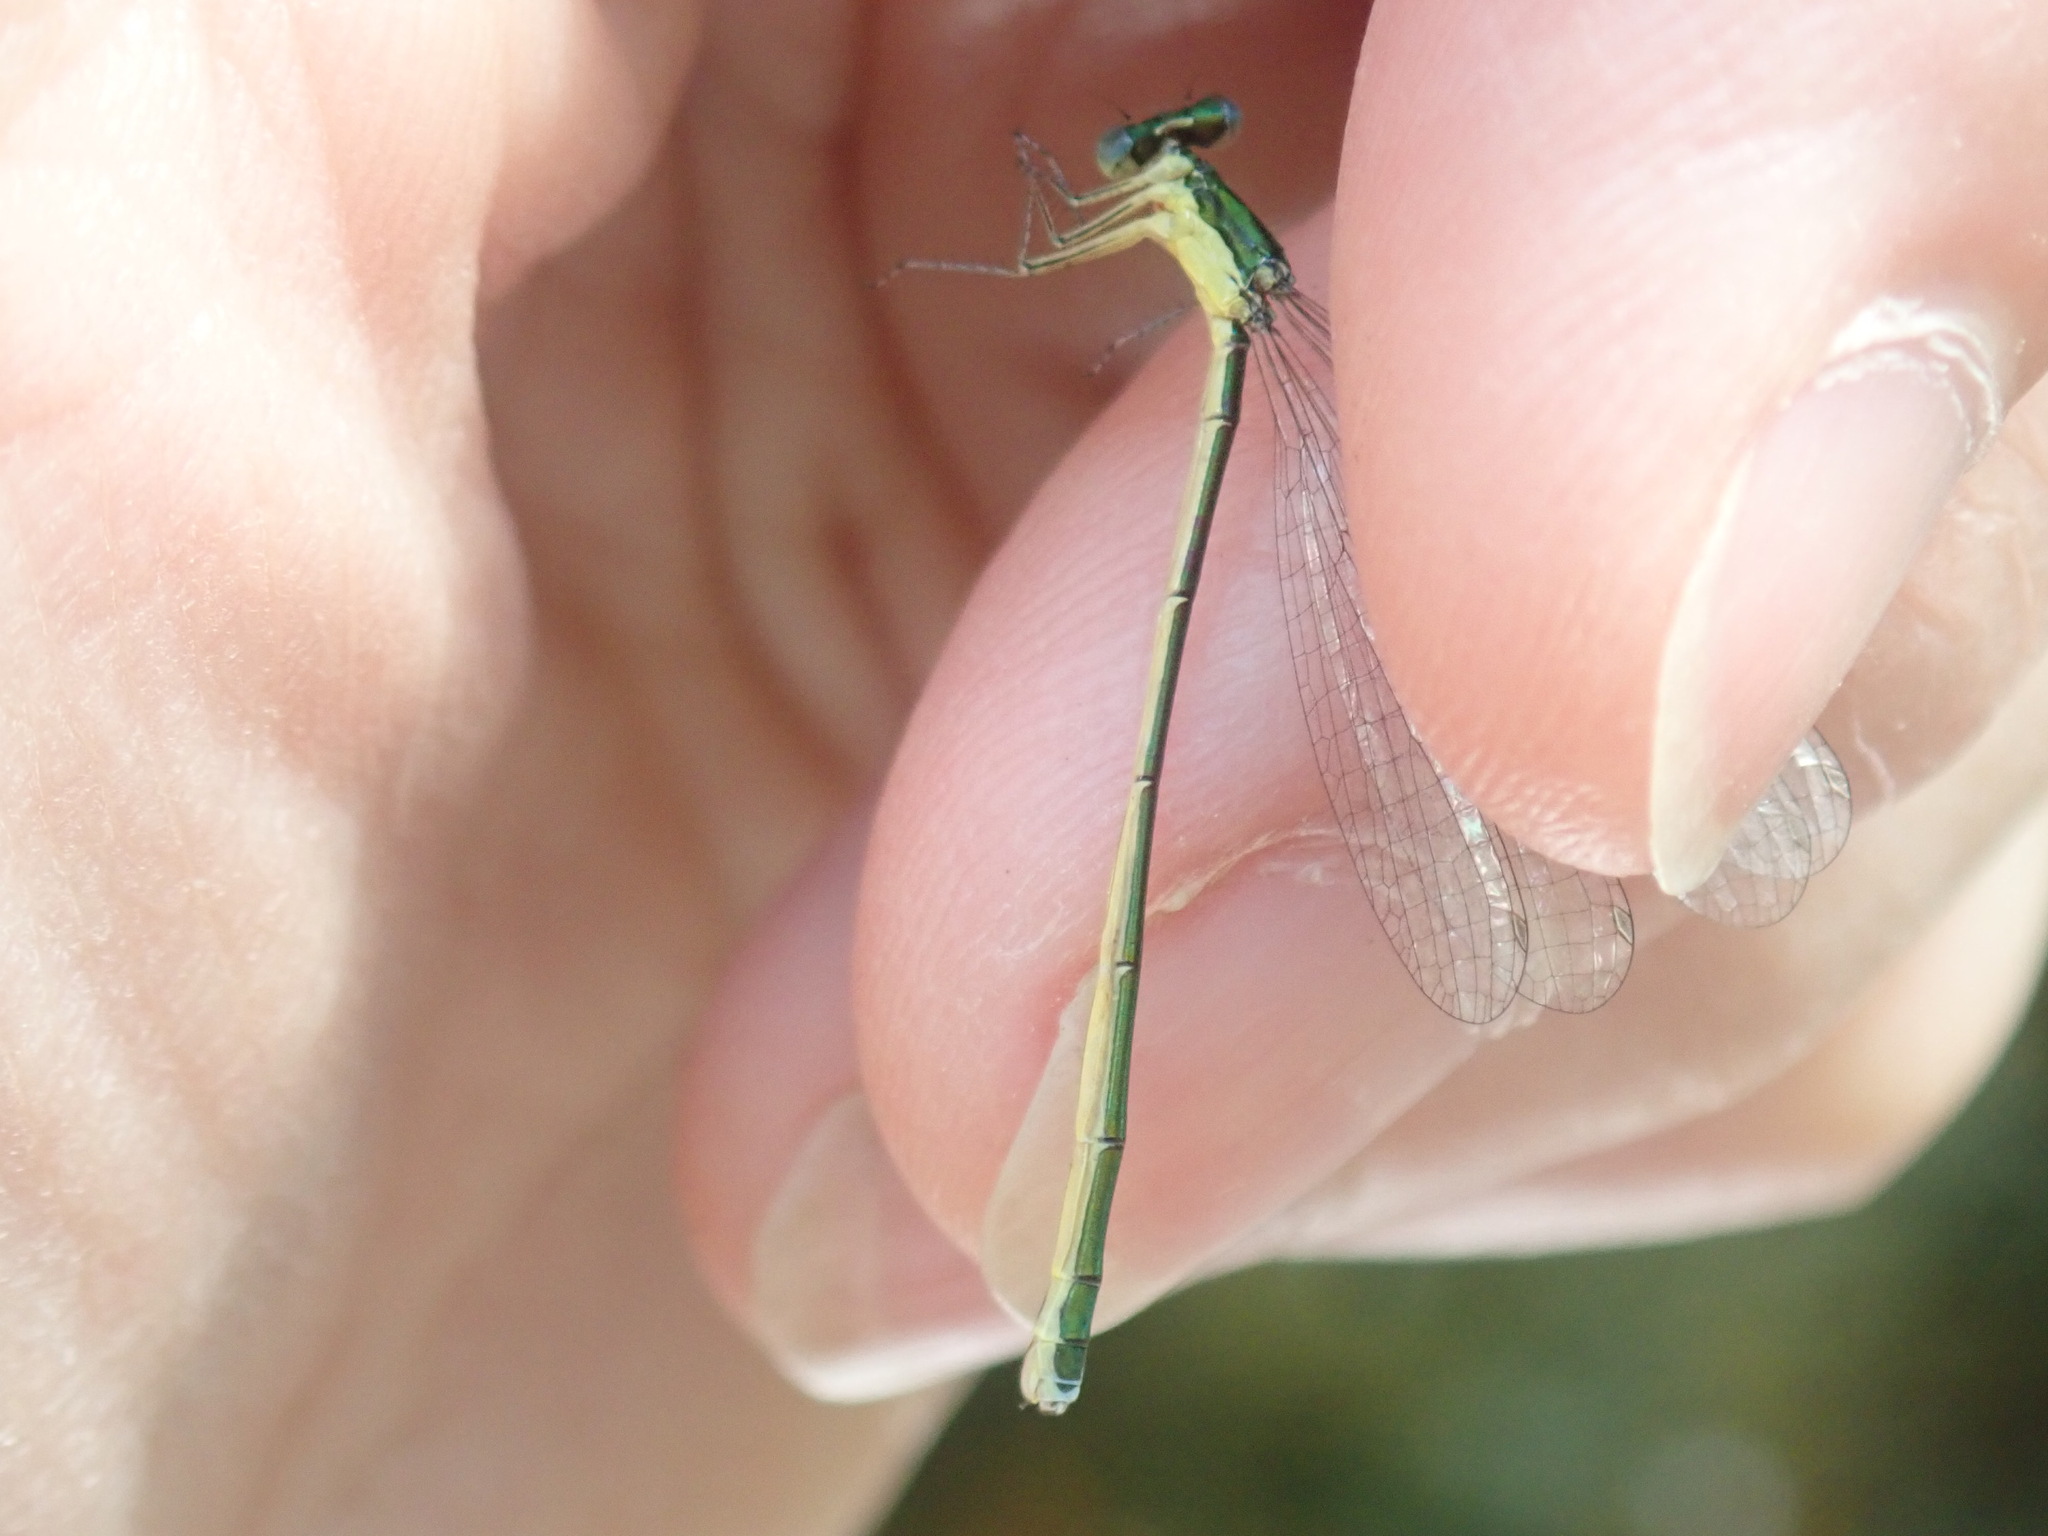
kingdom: Animalia
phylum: Arthropoda
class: Insecta
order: Odonata
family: Coenagrionidae
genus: Nehalennia
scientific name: Nehalennia irene
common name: Sedge sprite
